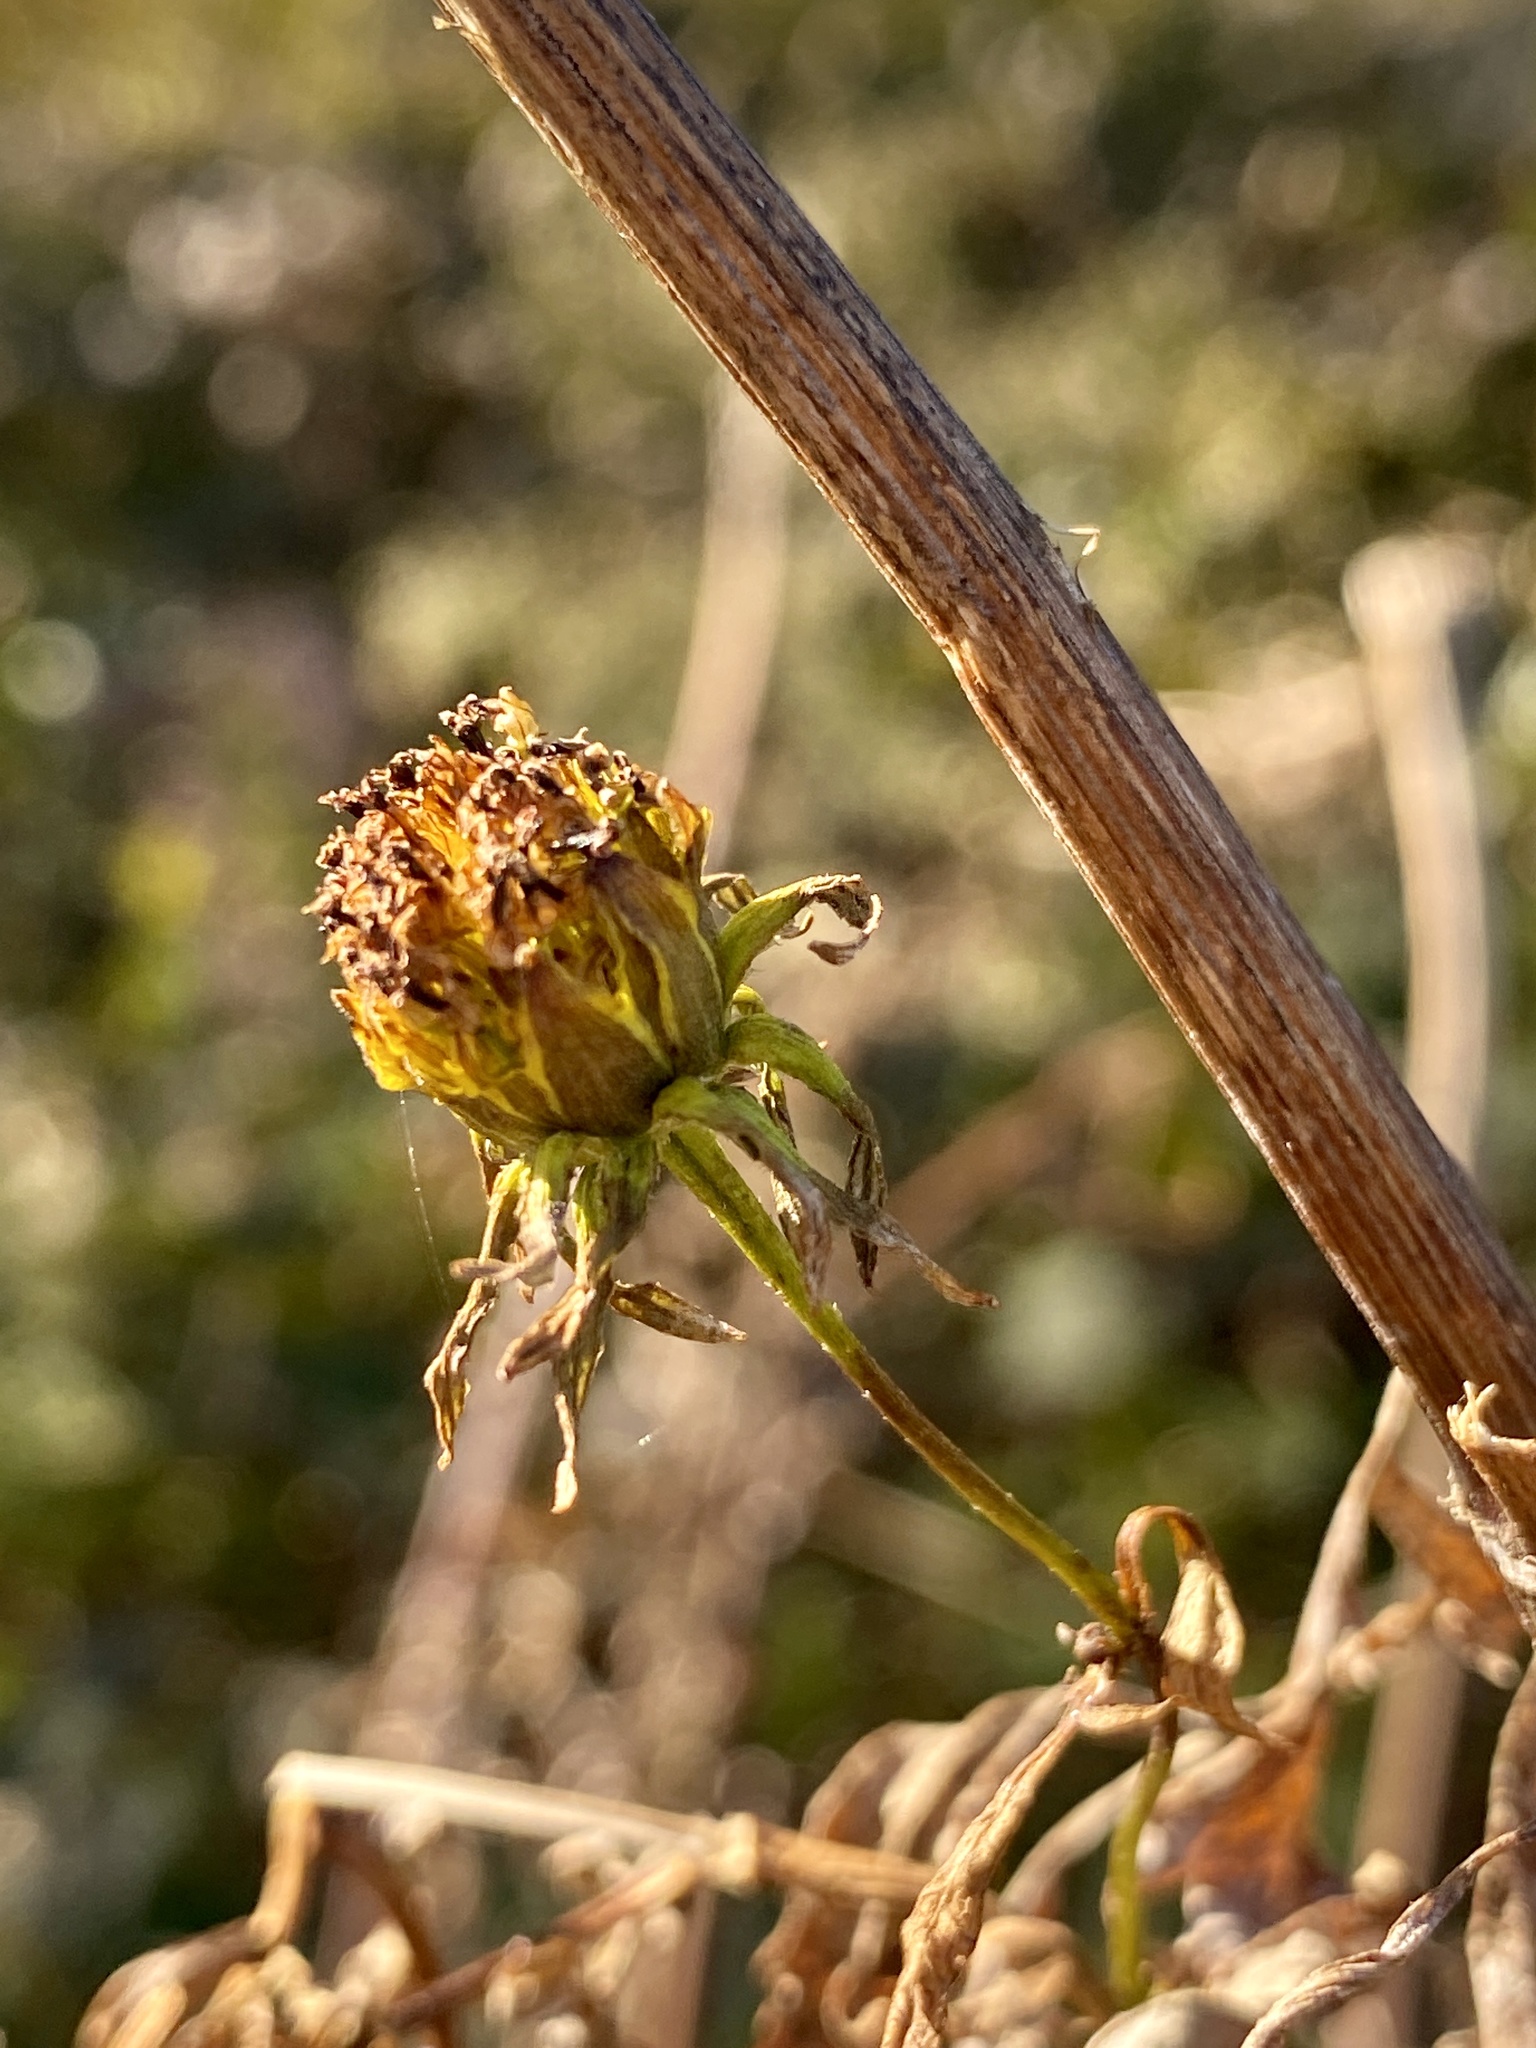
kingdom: Plantae
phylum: Tracheophyta
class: Magnoliopsida
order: Asterales
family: Asteraceae
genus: Bidens
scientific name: Bidens polylepis
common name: Awnless beggarticks
